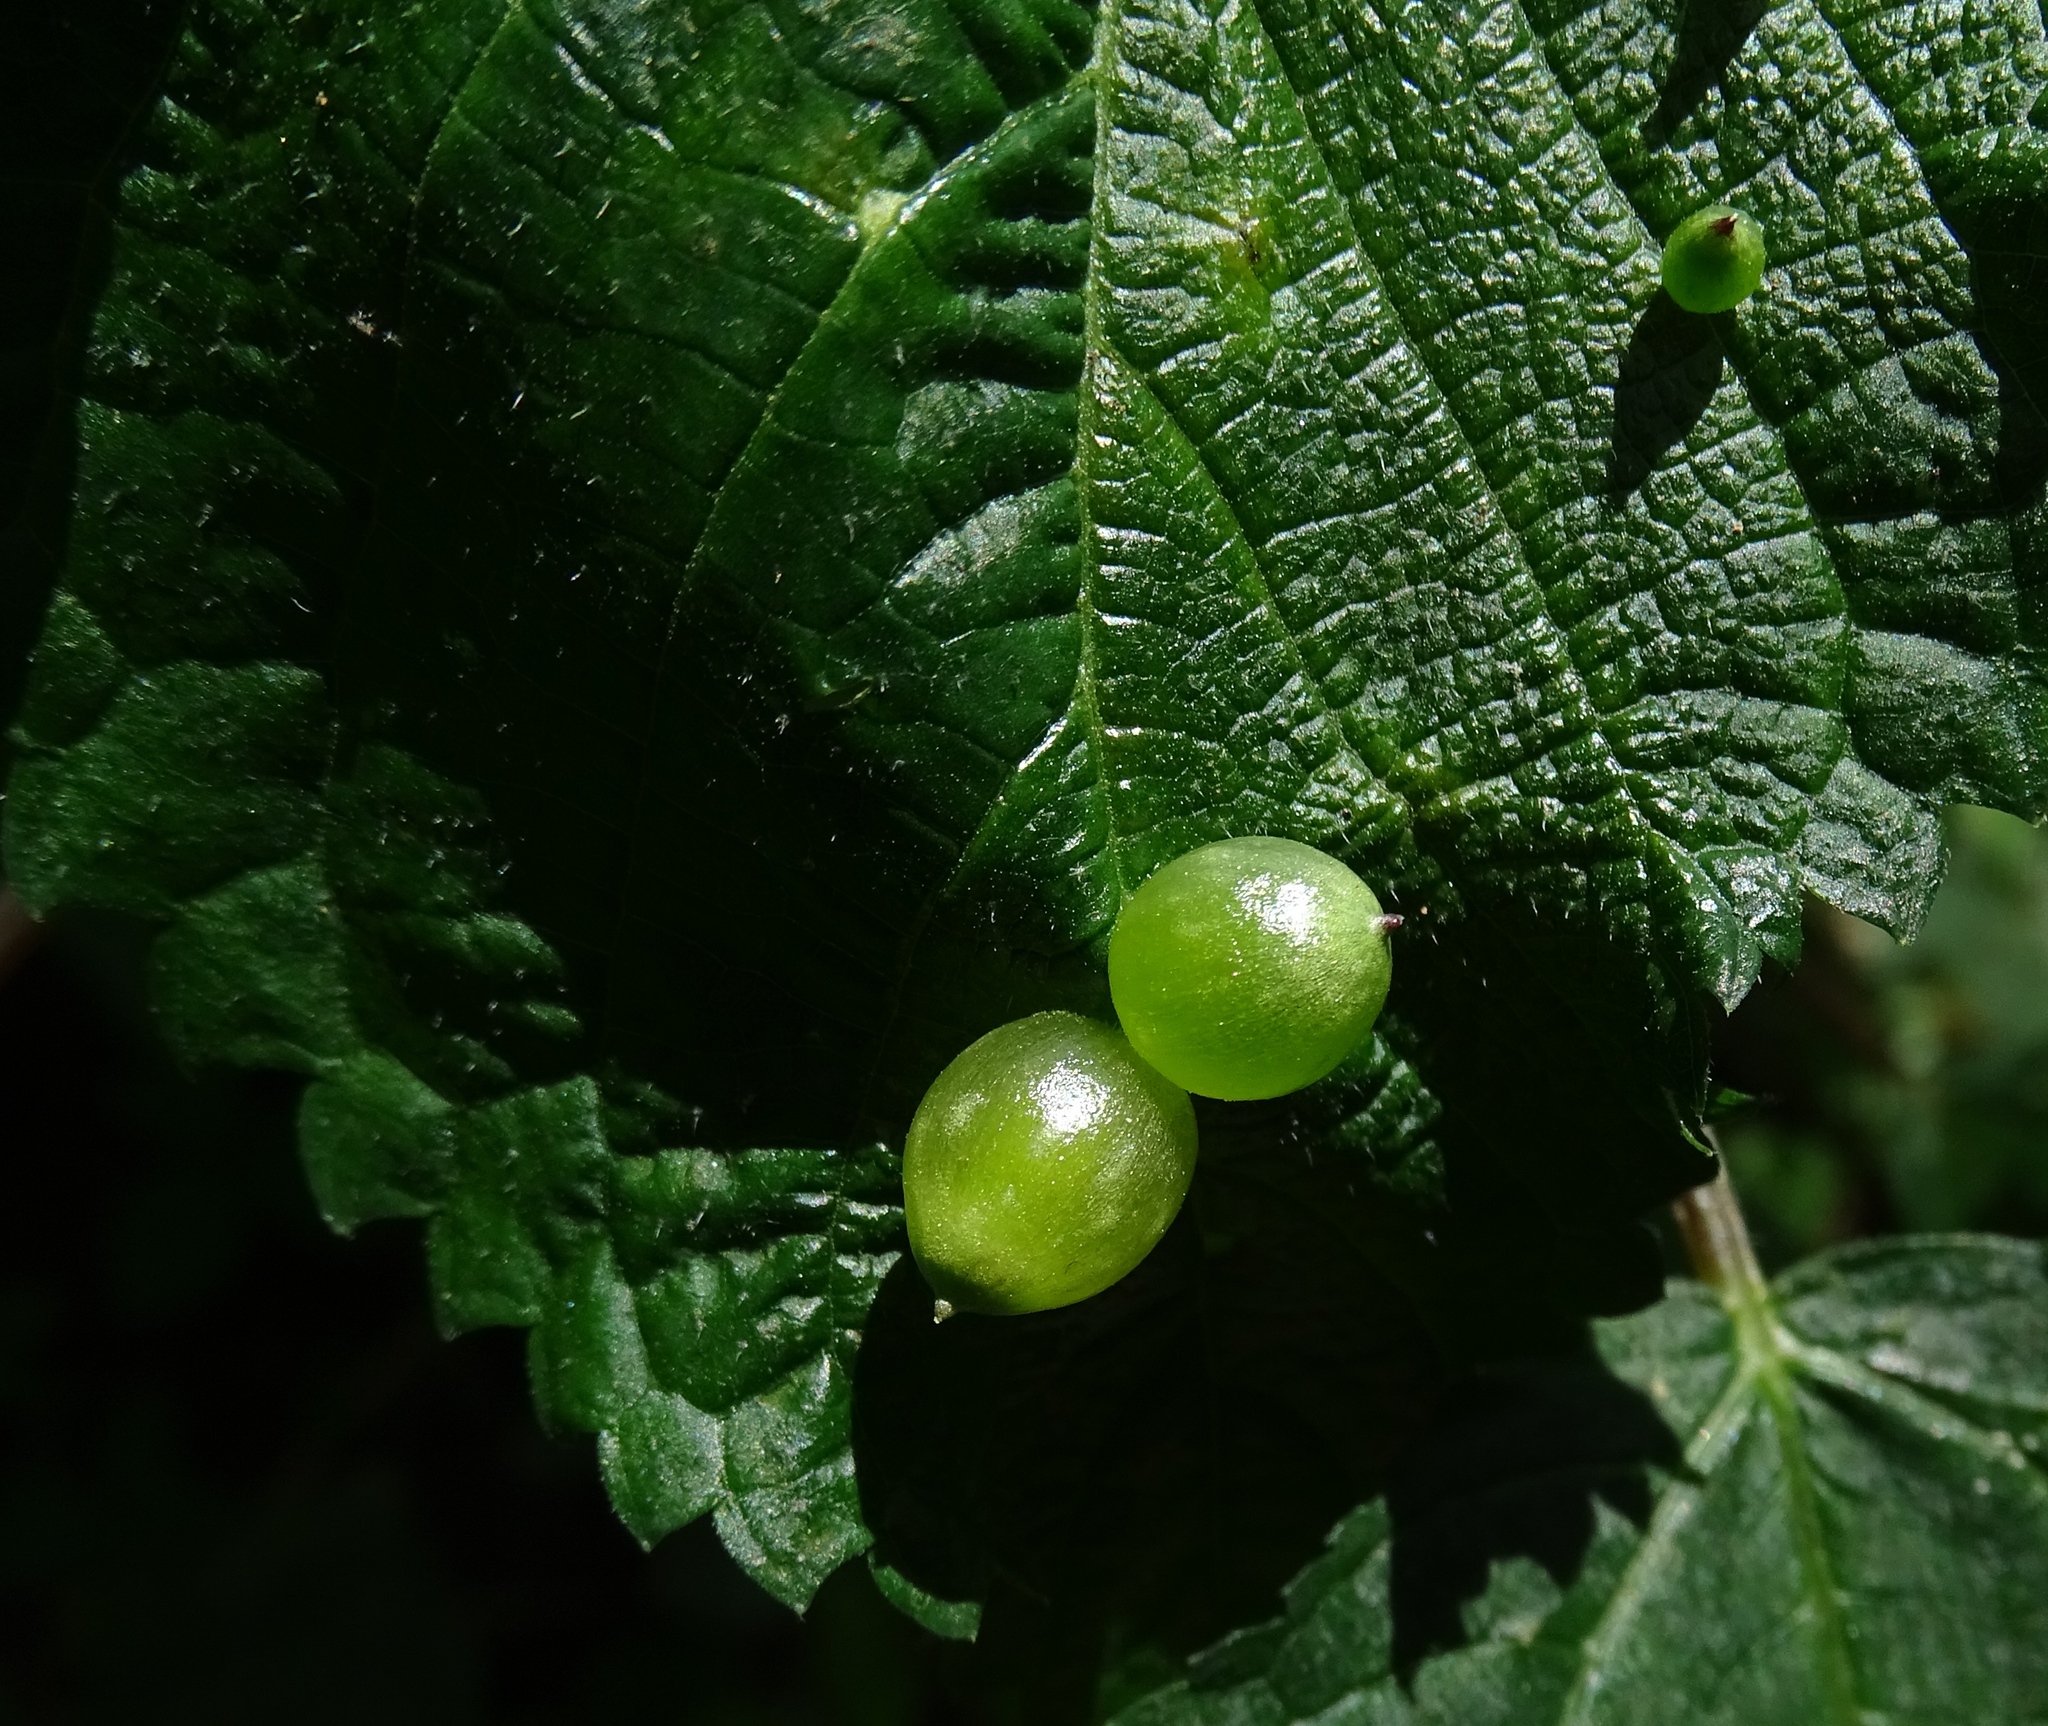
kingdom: Animalia
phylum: Arthropoda
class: Insecta
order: Diptera
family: Cecidomyiidae
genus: Dasineura
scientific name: Dasineura investita
